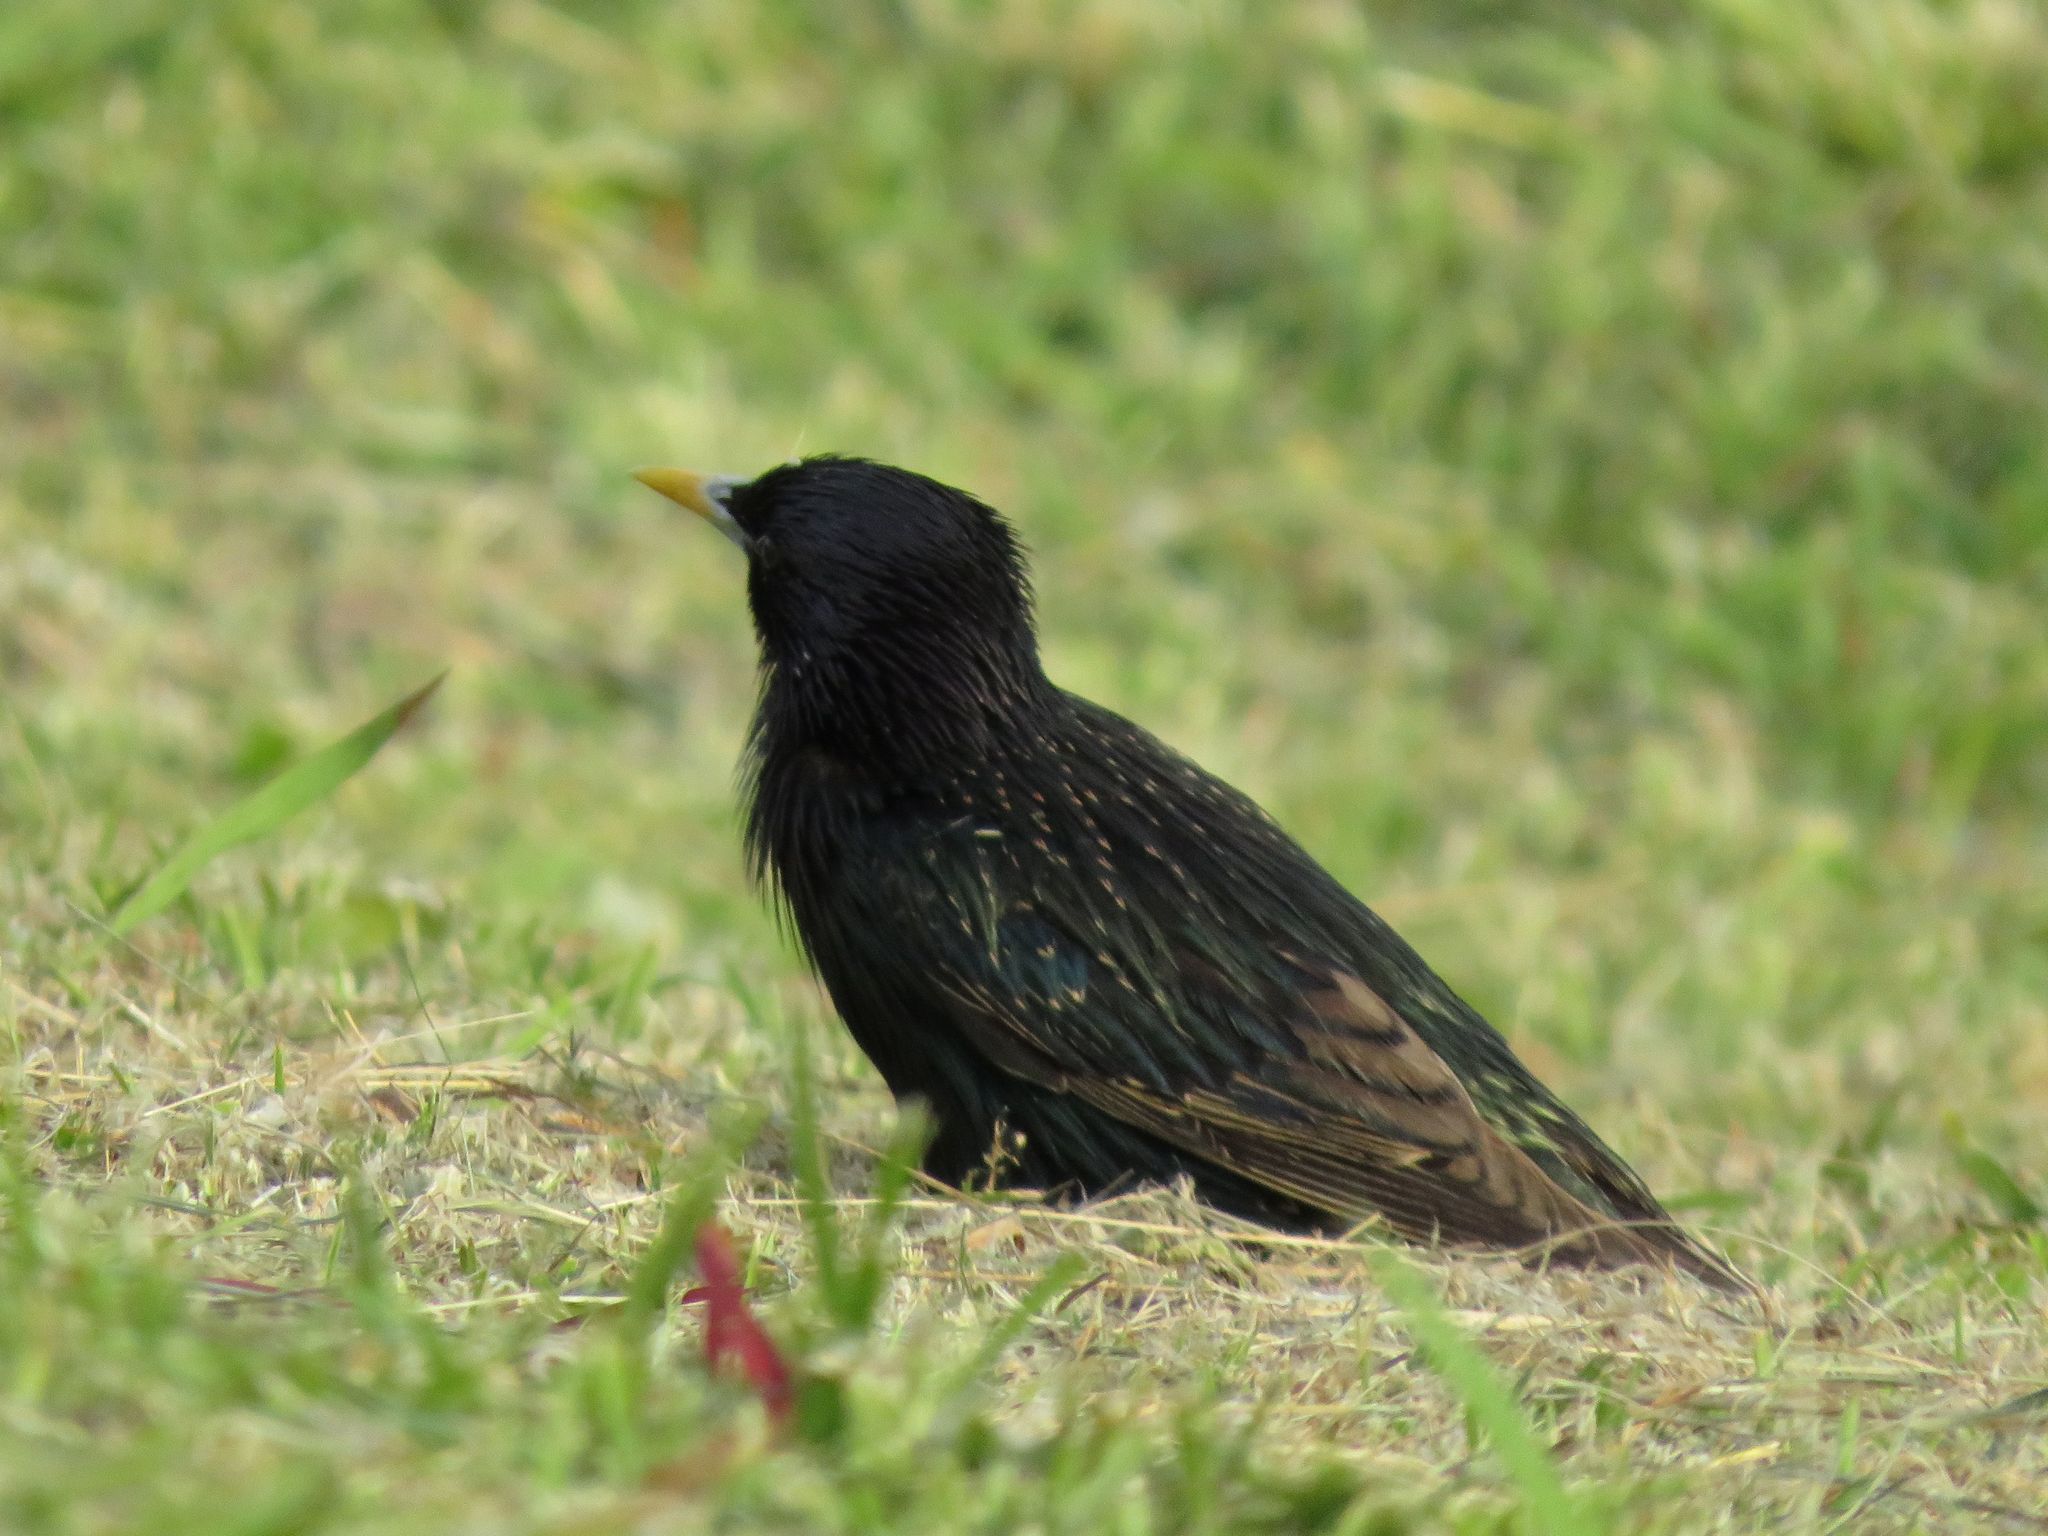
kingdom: Animalia
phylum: Chordata
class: Aves
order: Passeriformes
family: Sturnidae
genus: Sturnus
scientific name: Sturnus vulgaris
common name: Common starling
